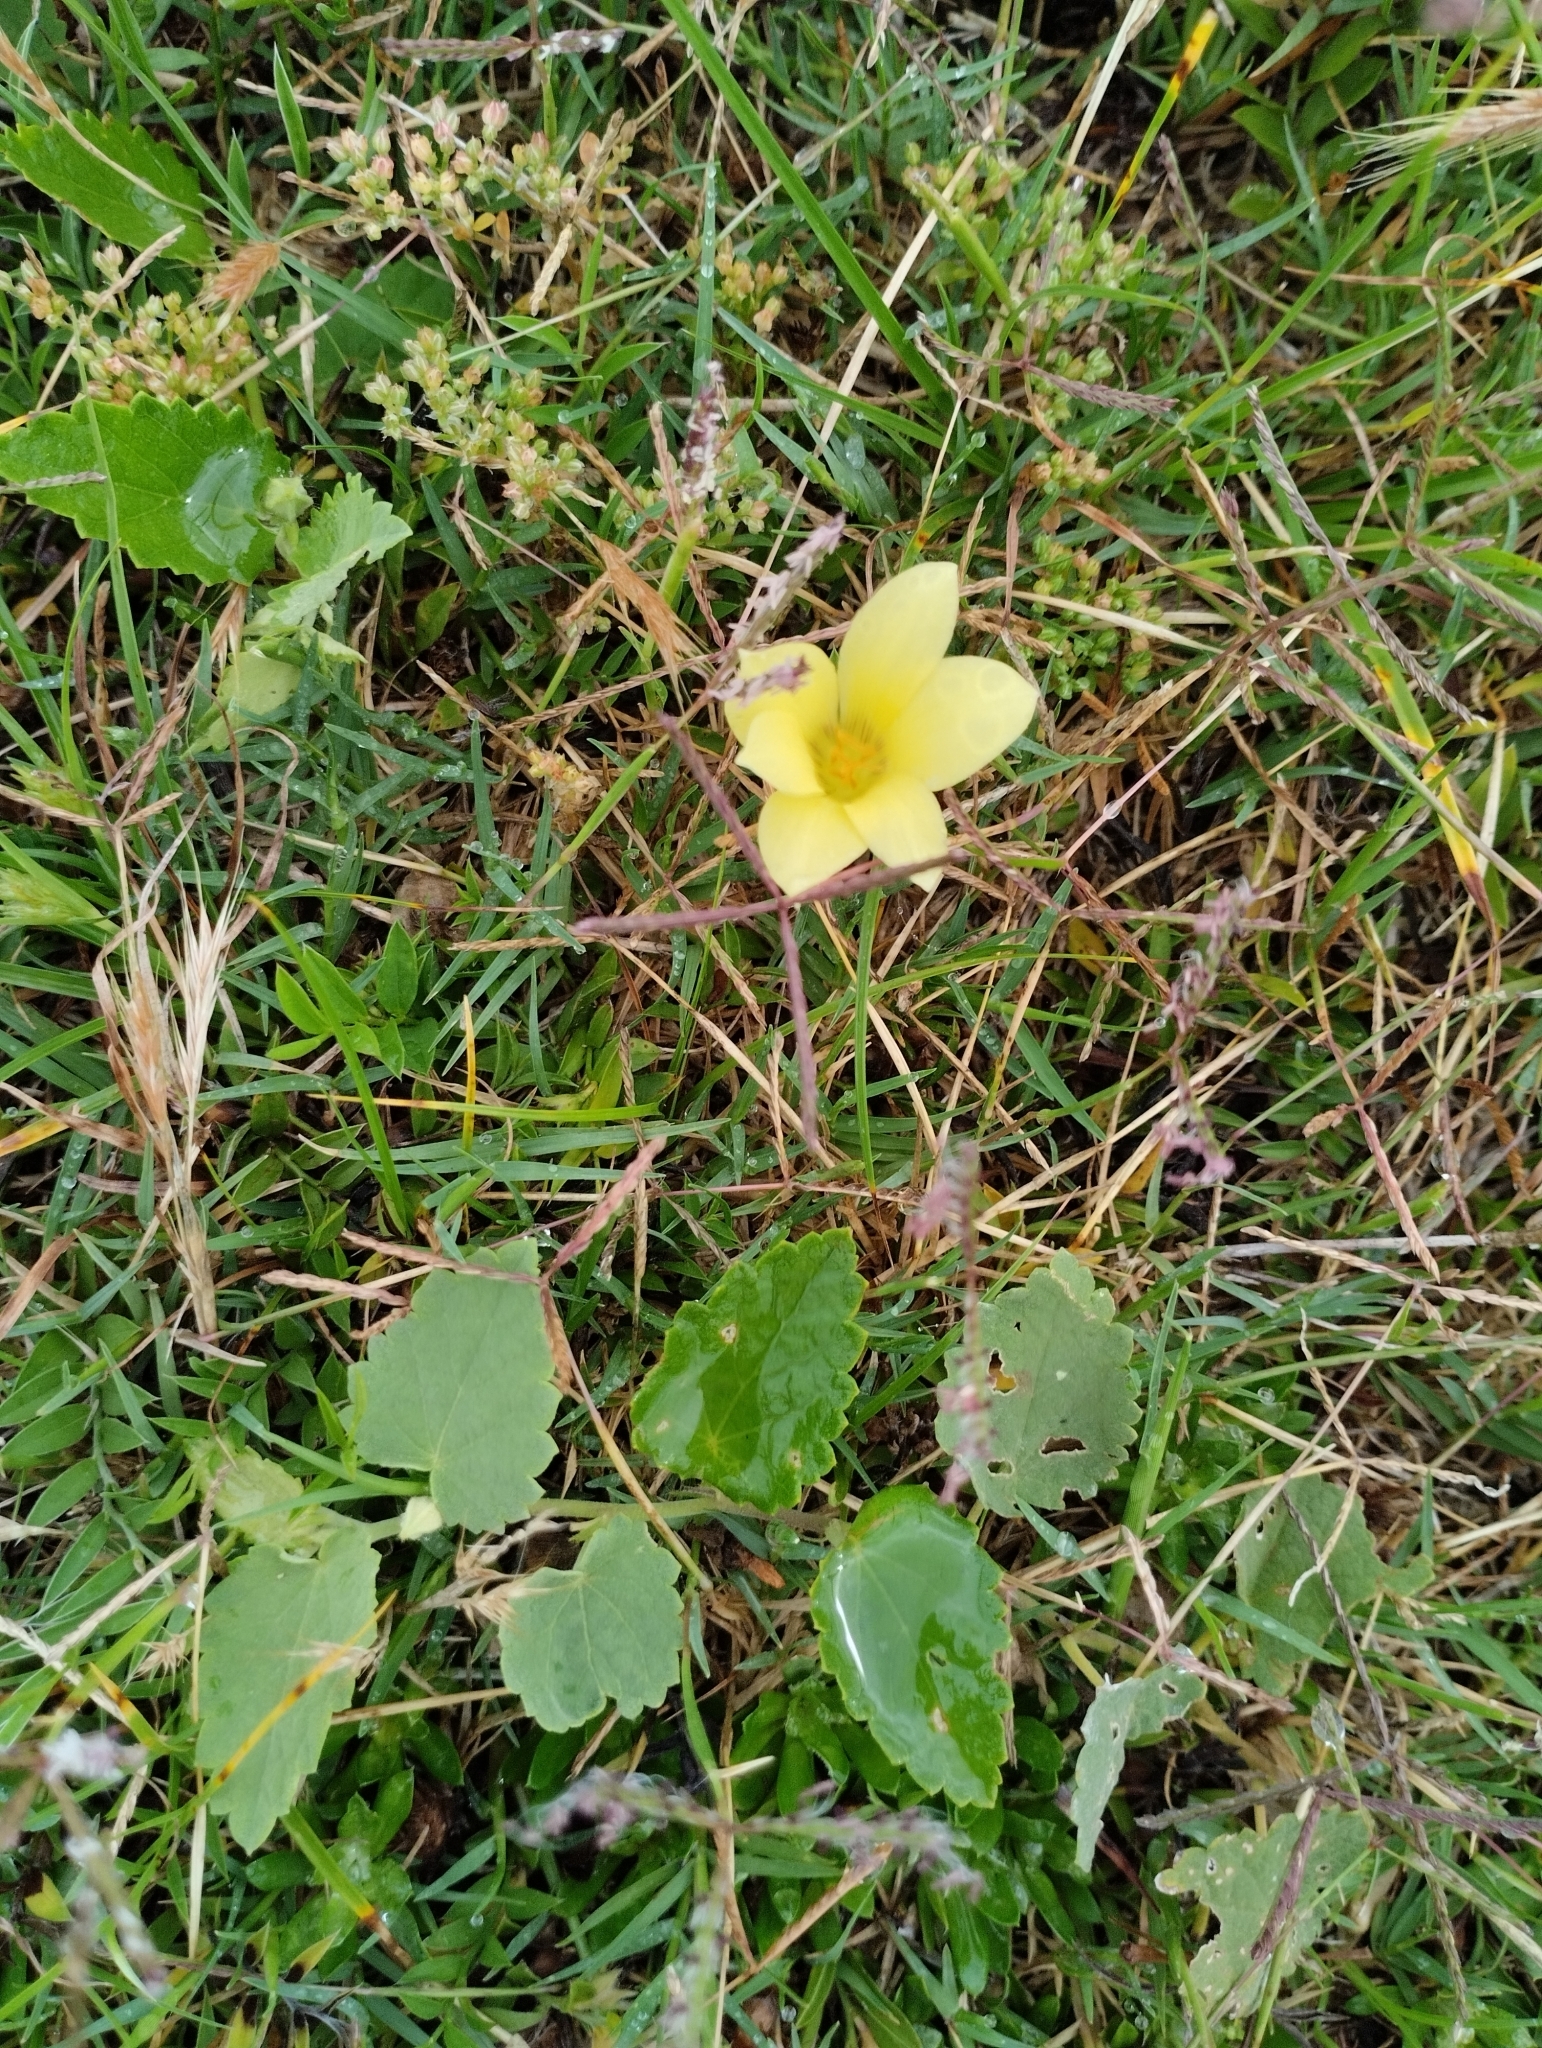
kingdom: Plantae
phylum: Tracheophyta
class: Liliopsida
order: Asparagales
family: Amaryllidaceae
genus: Zephyranthes
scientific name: Zephyranthes americana
